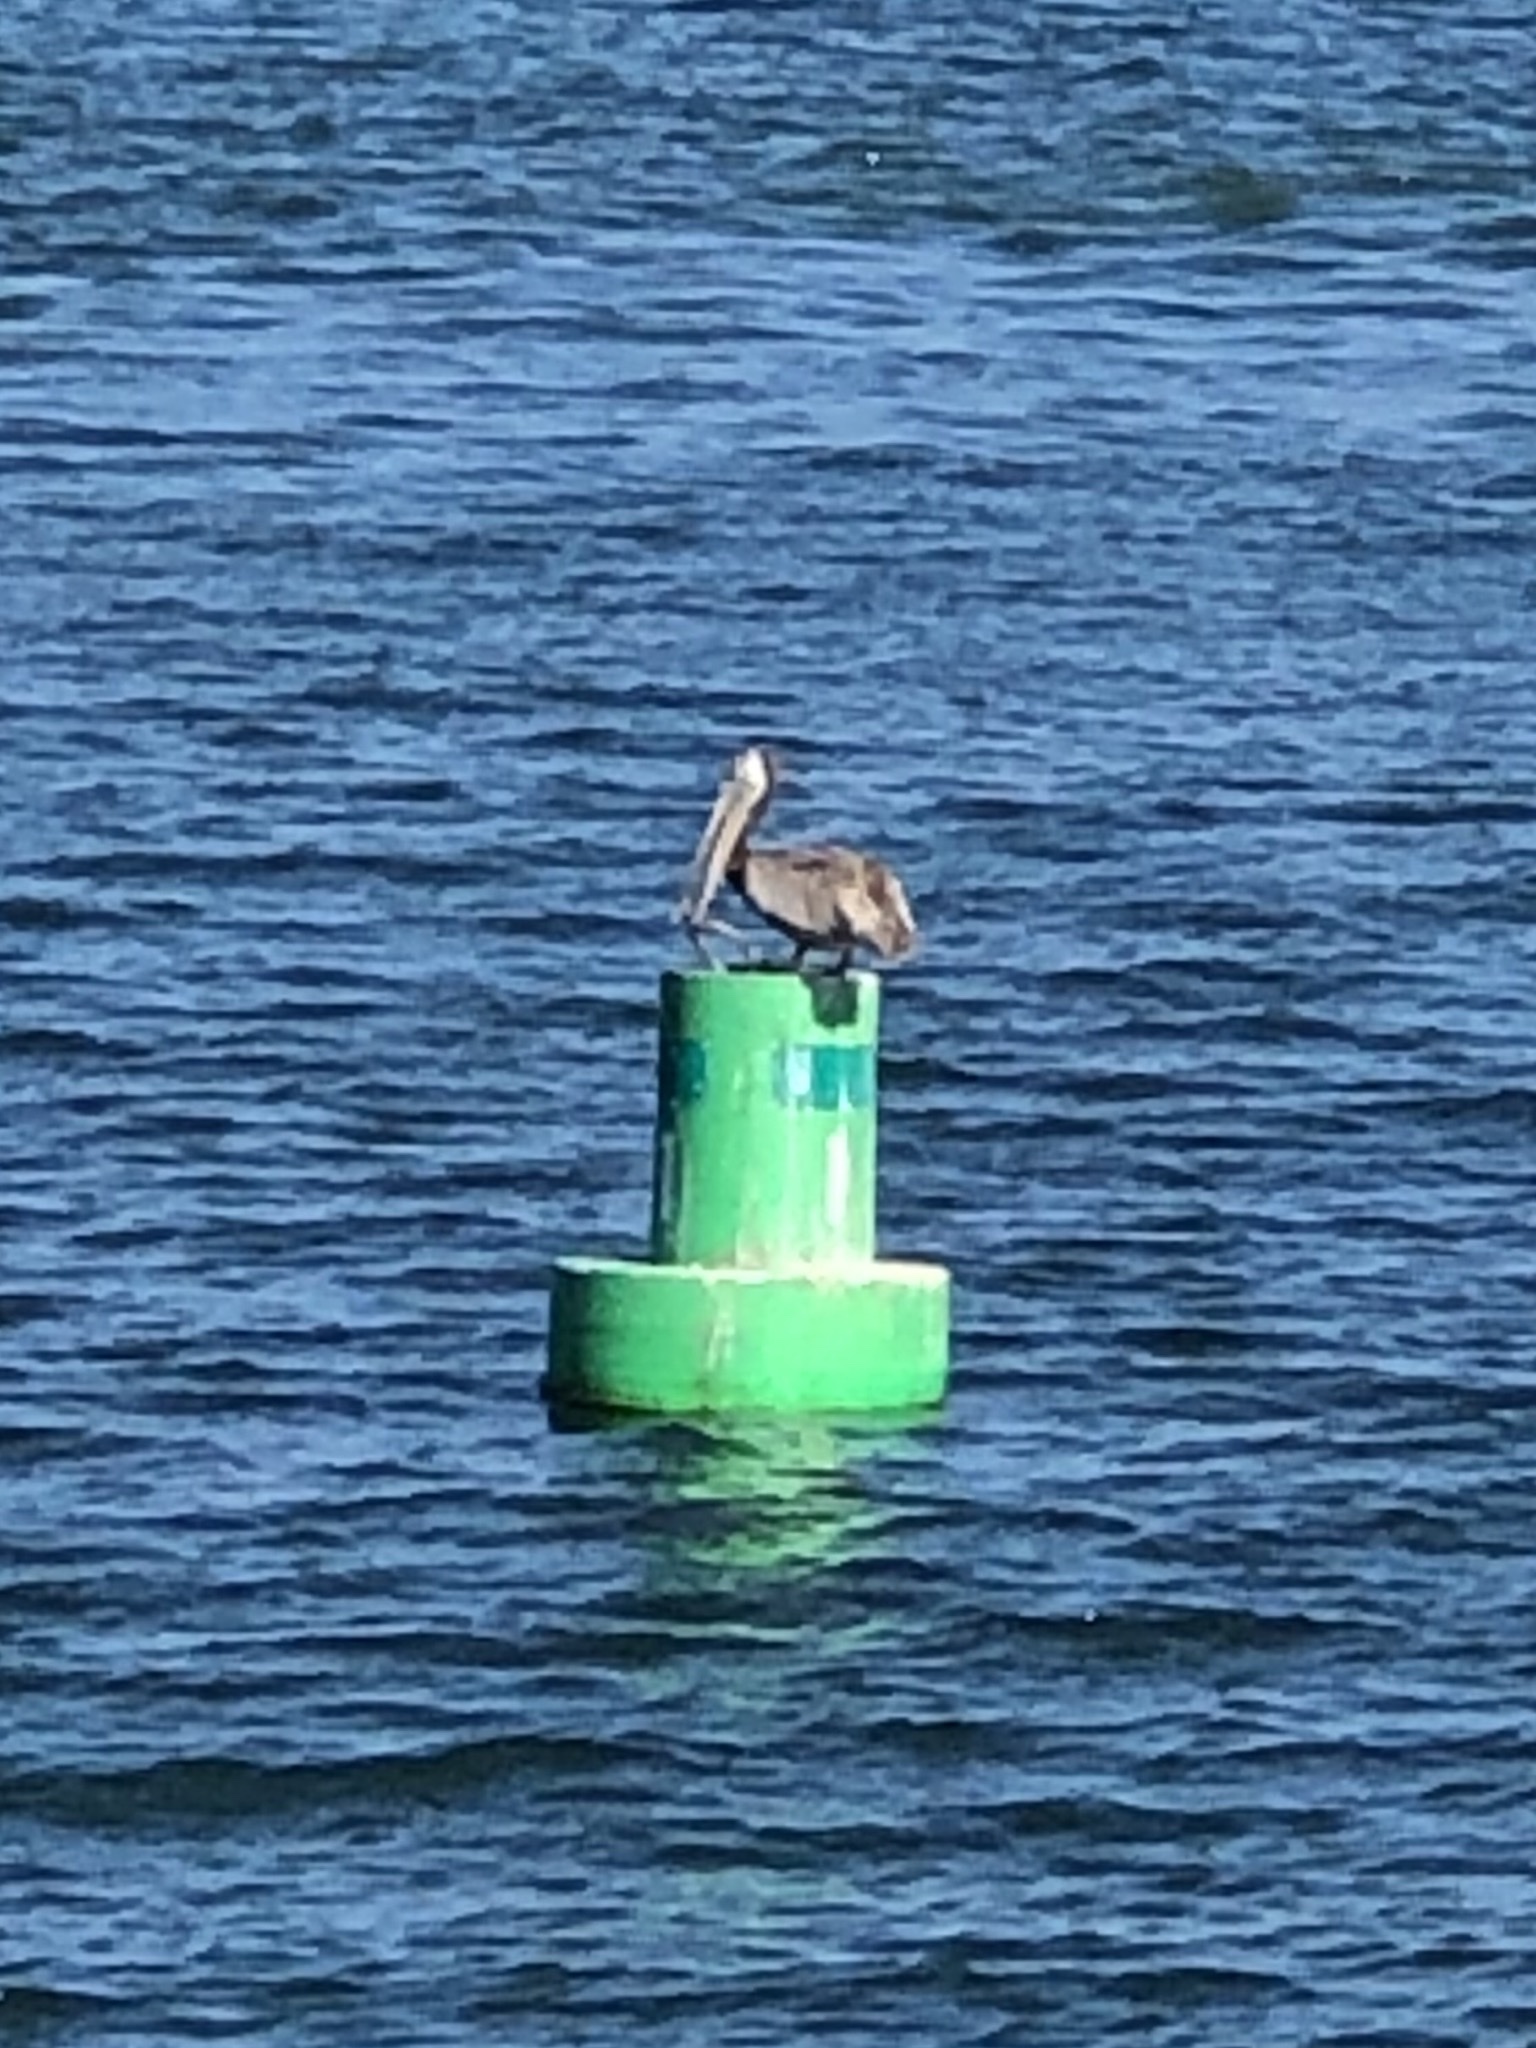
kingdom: Animalia
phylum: Chordata
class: Aves
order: Pelecaniformes
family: Pelecanidae
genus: Pelecanus
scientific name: Pelecanus occidentalis
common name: Brown pelican
